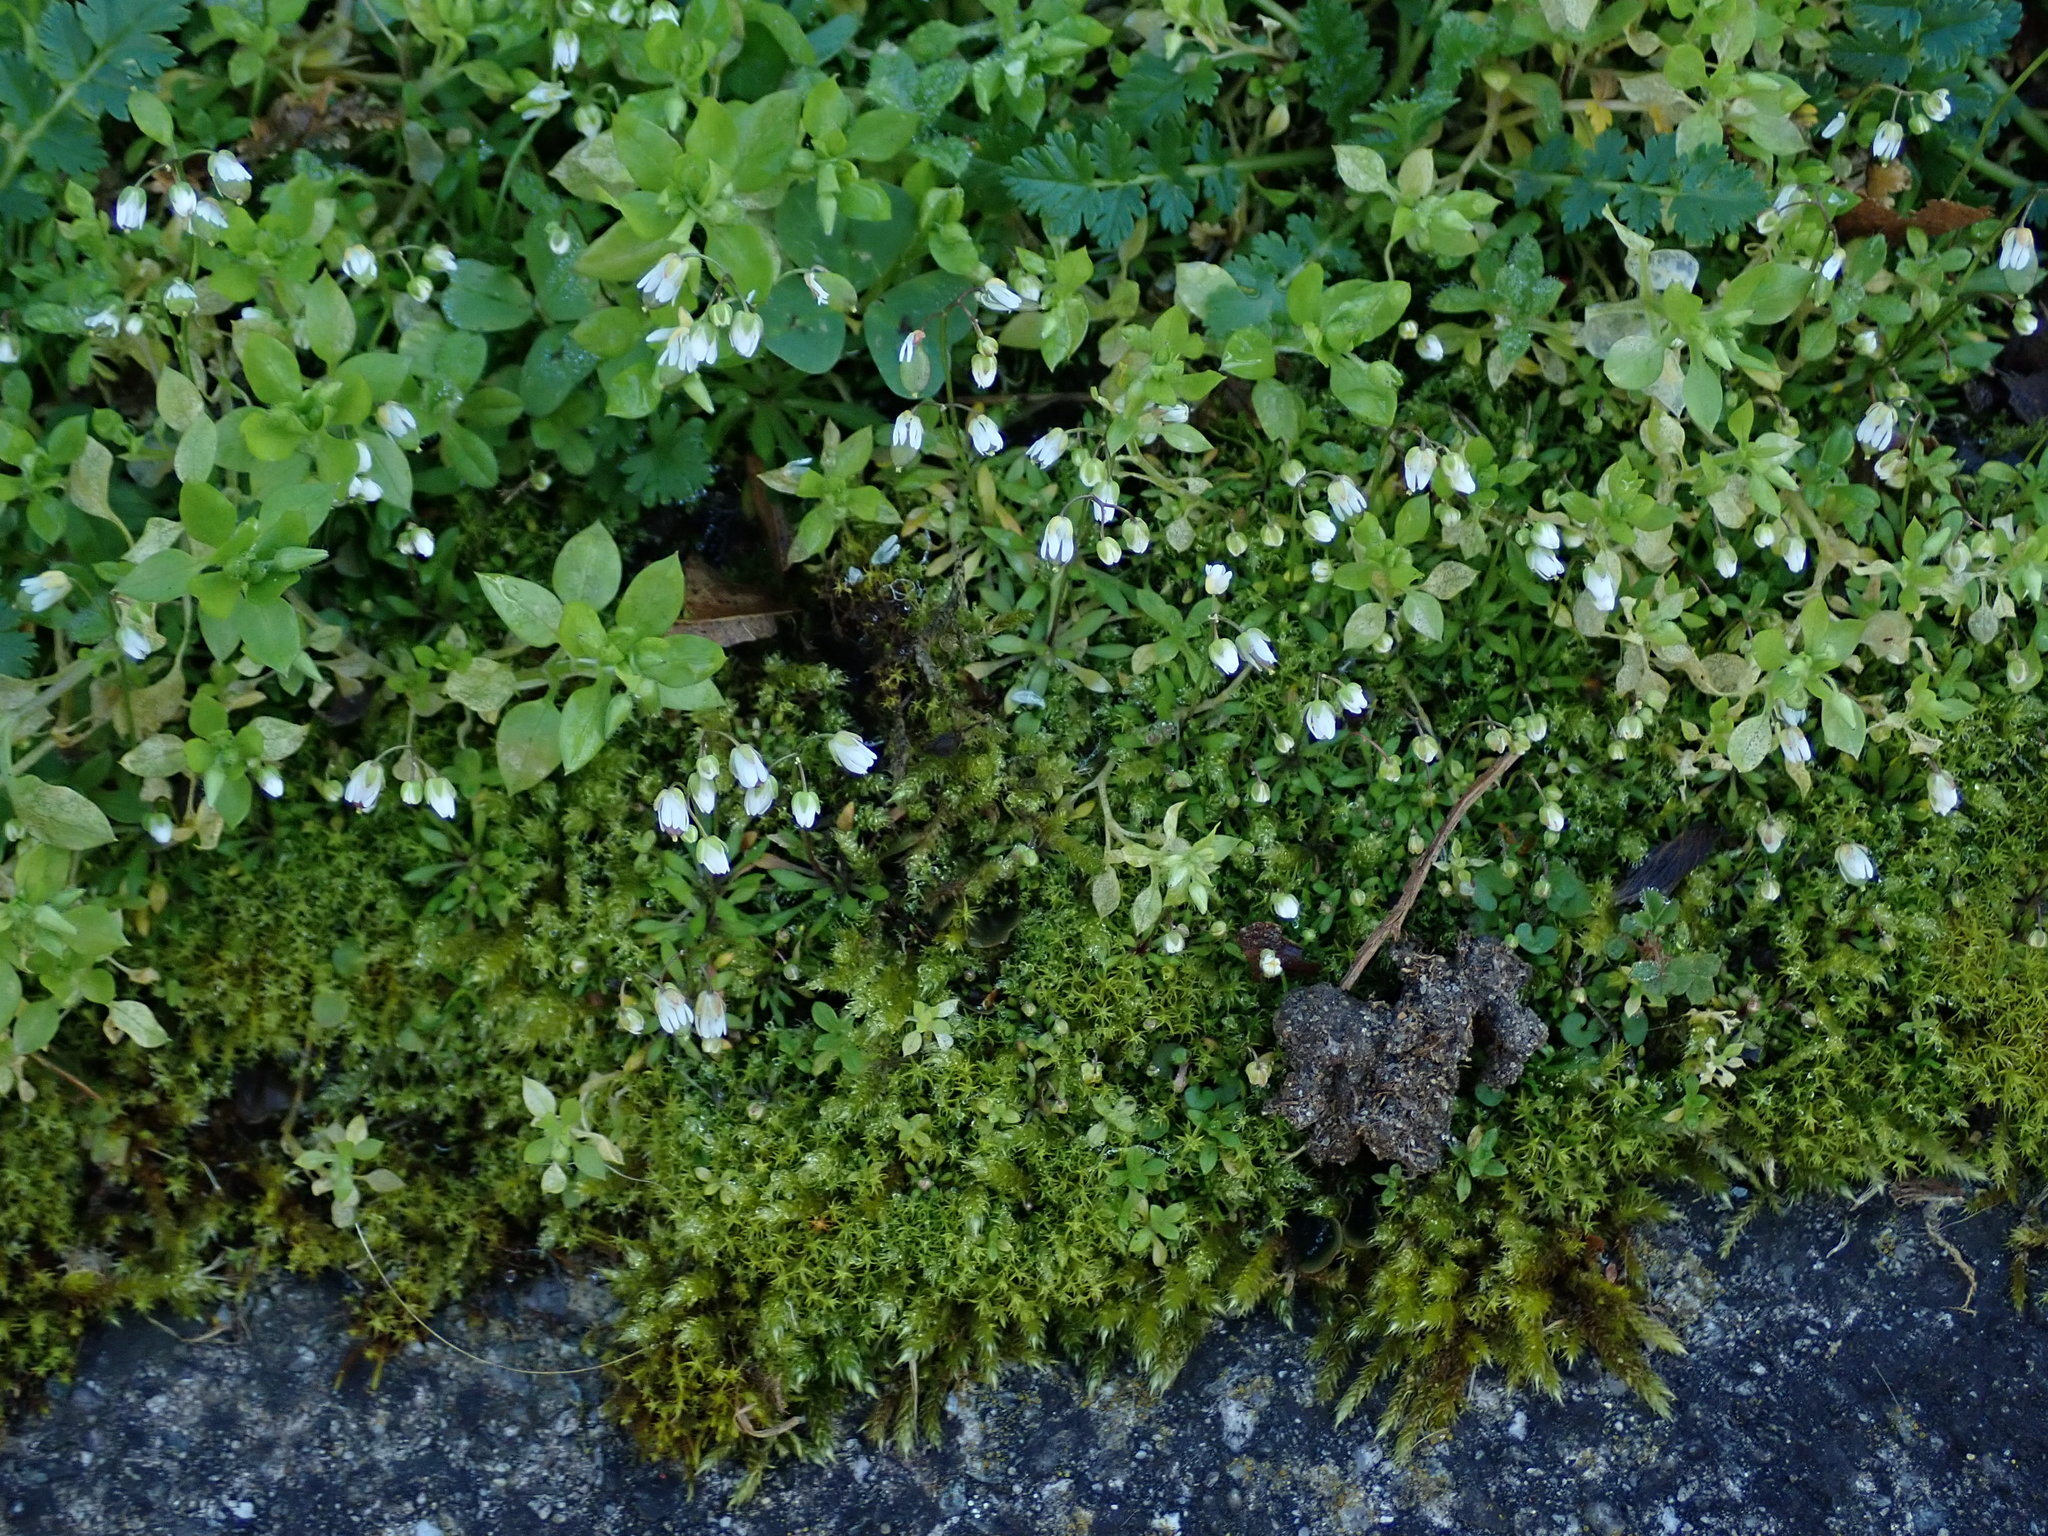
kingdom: Plantae
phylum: Tracheophyta
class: Magnoliopsida
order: Brassicales
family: Brassicaceae
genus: Draba
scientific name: Draba verna
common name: Spring draba
